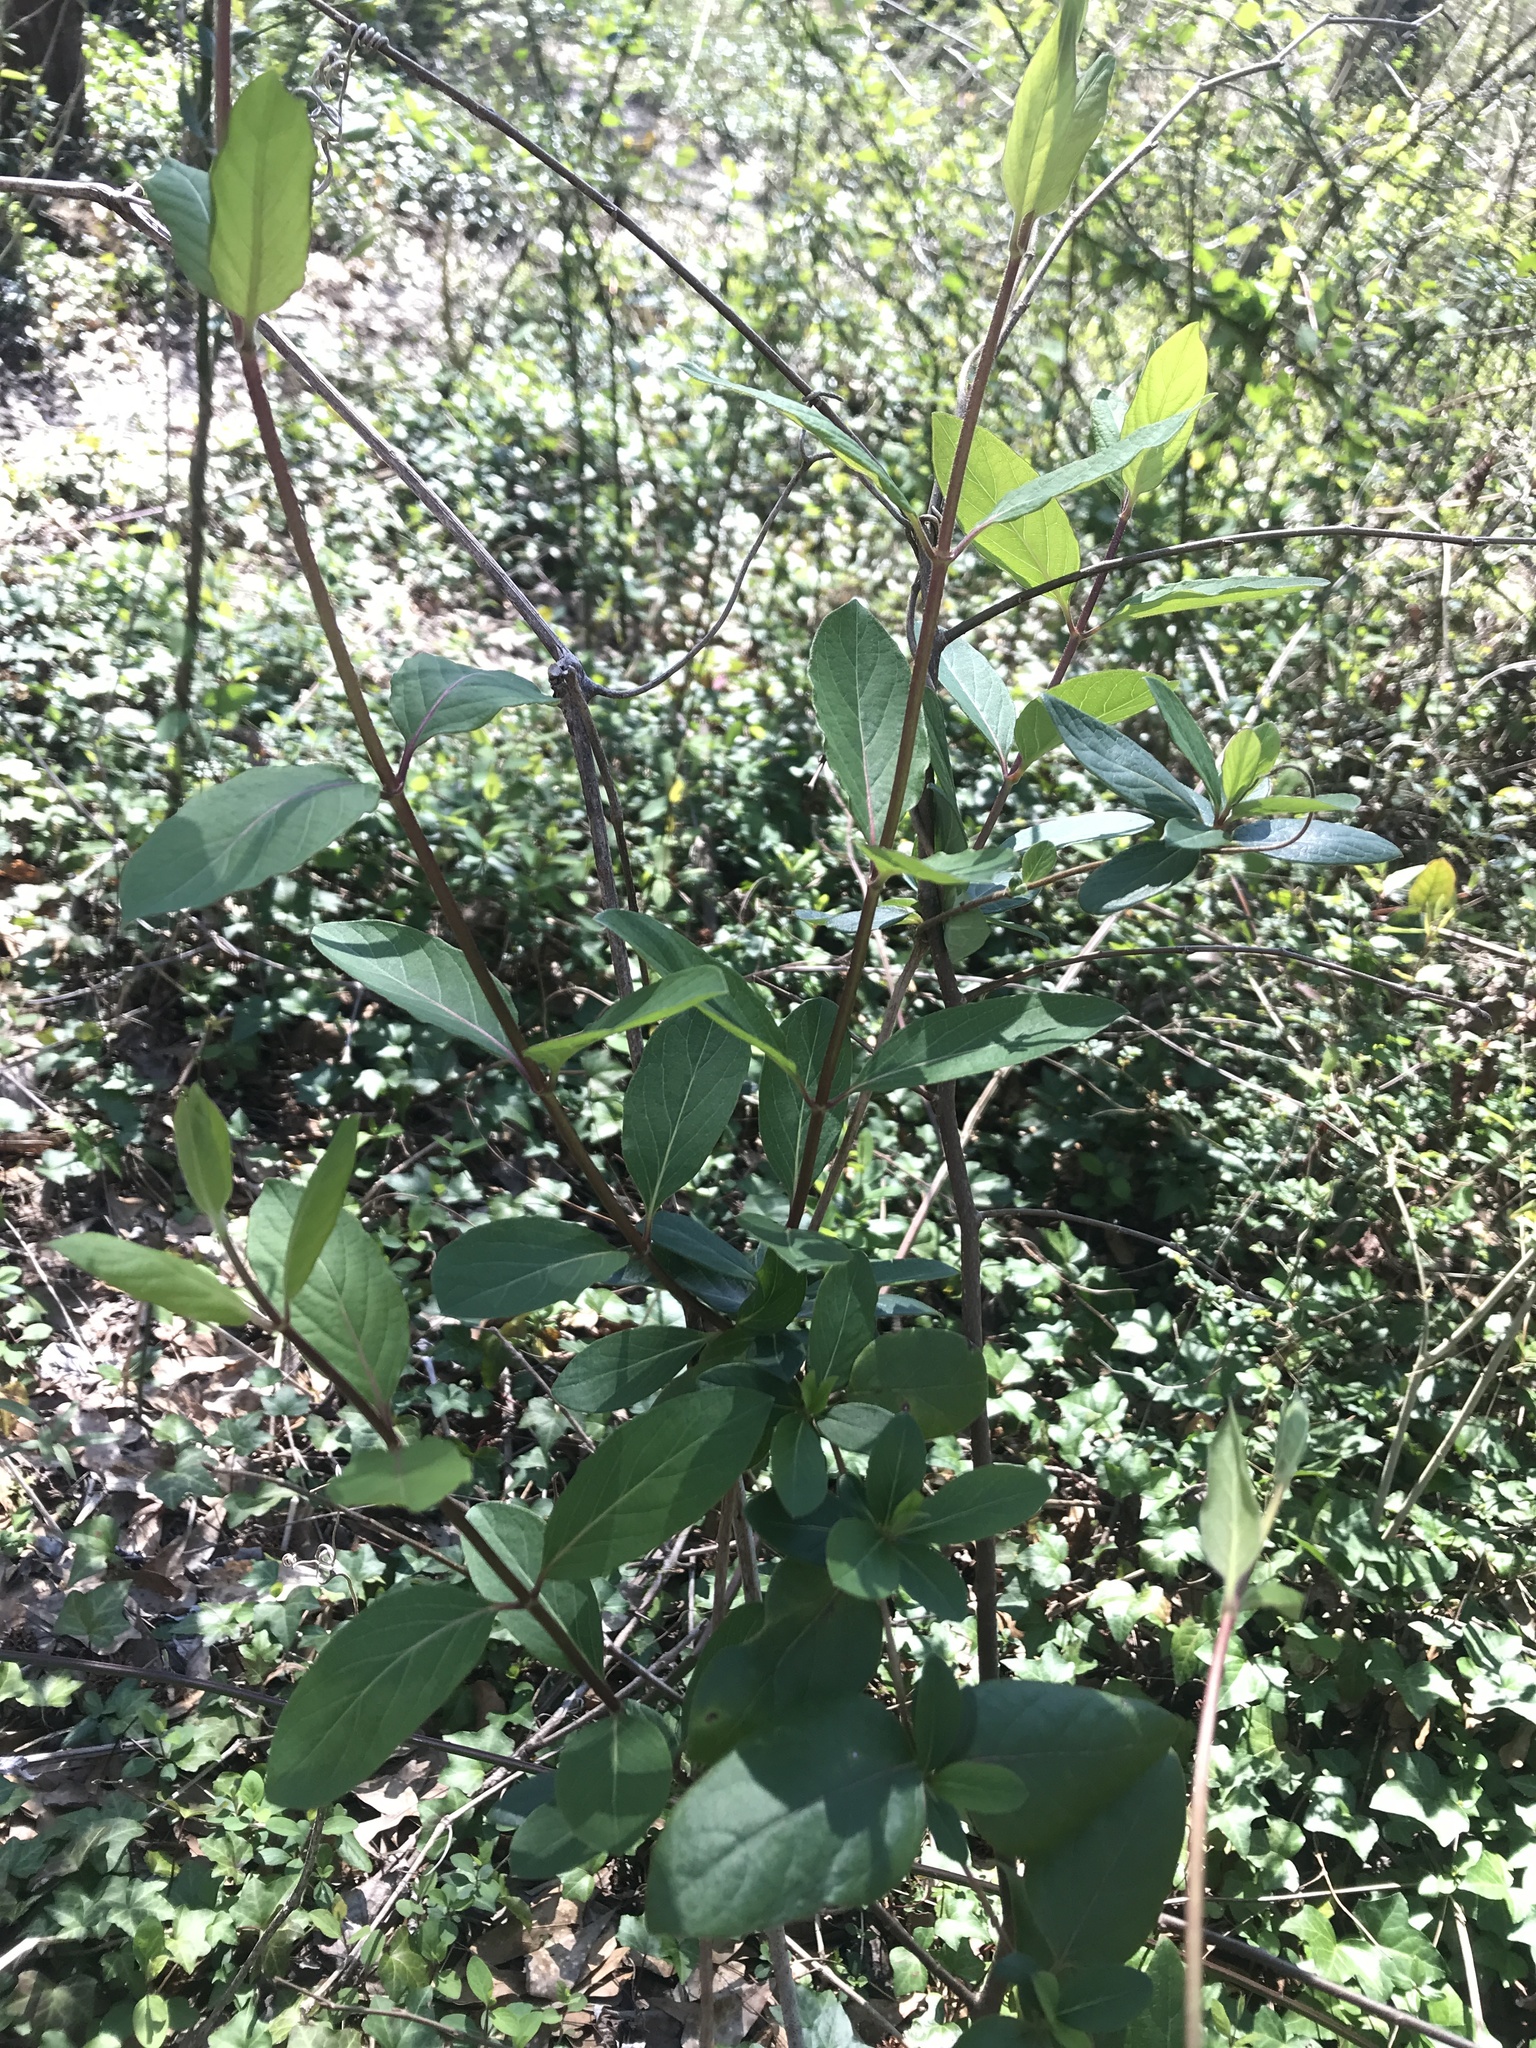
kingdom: Plantae
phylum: Tracheophyta
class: Magnoliopsida
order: Dipsacales
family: Caprifoliaceae
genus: Lonicera
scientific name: Lonicera japonica
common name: Japanese honeysuckle
